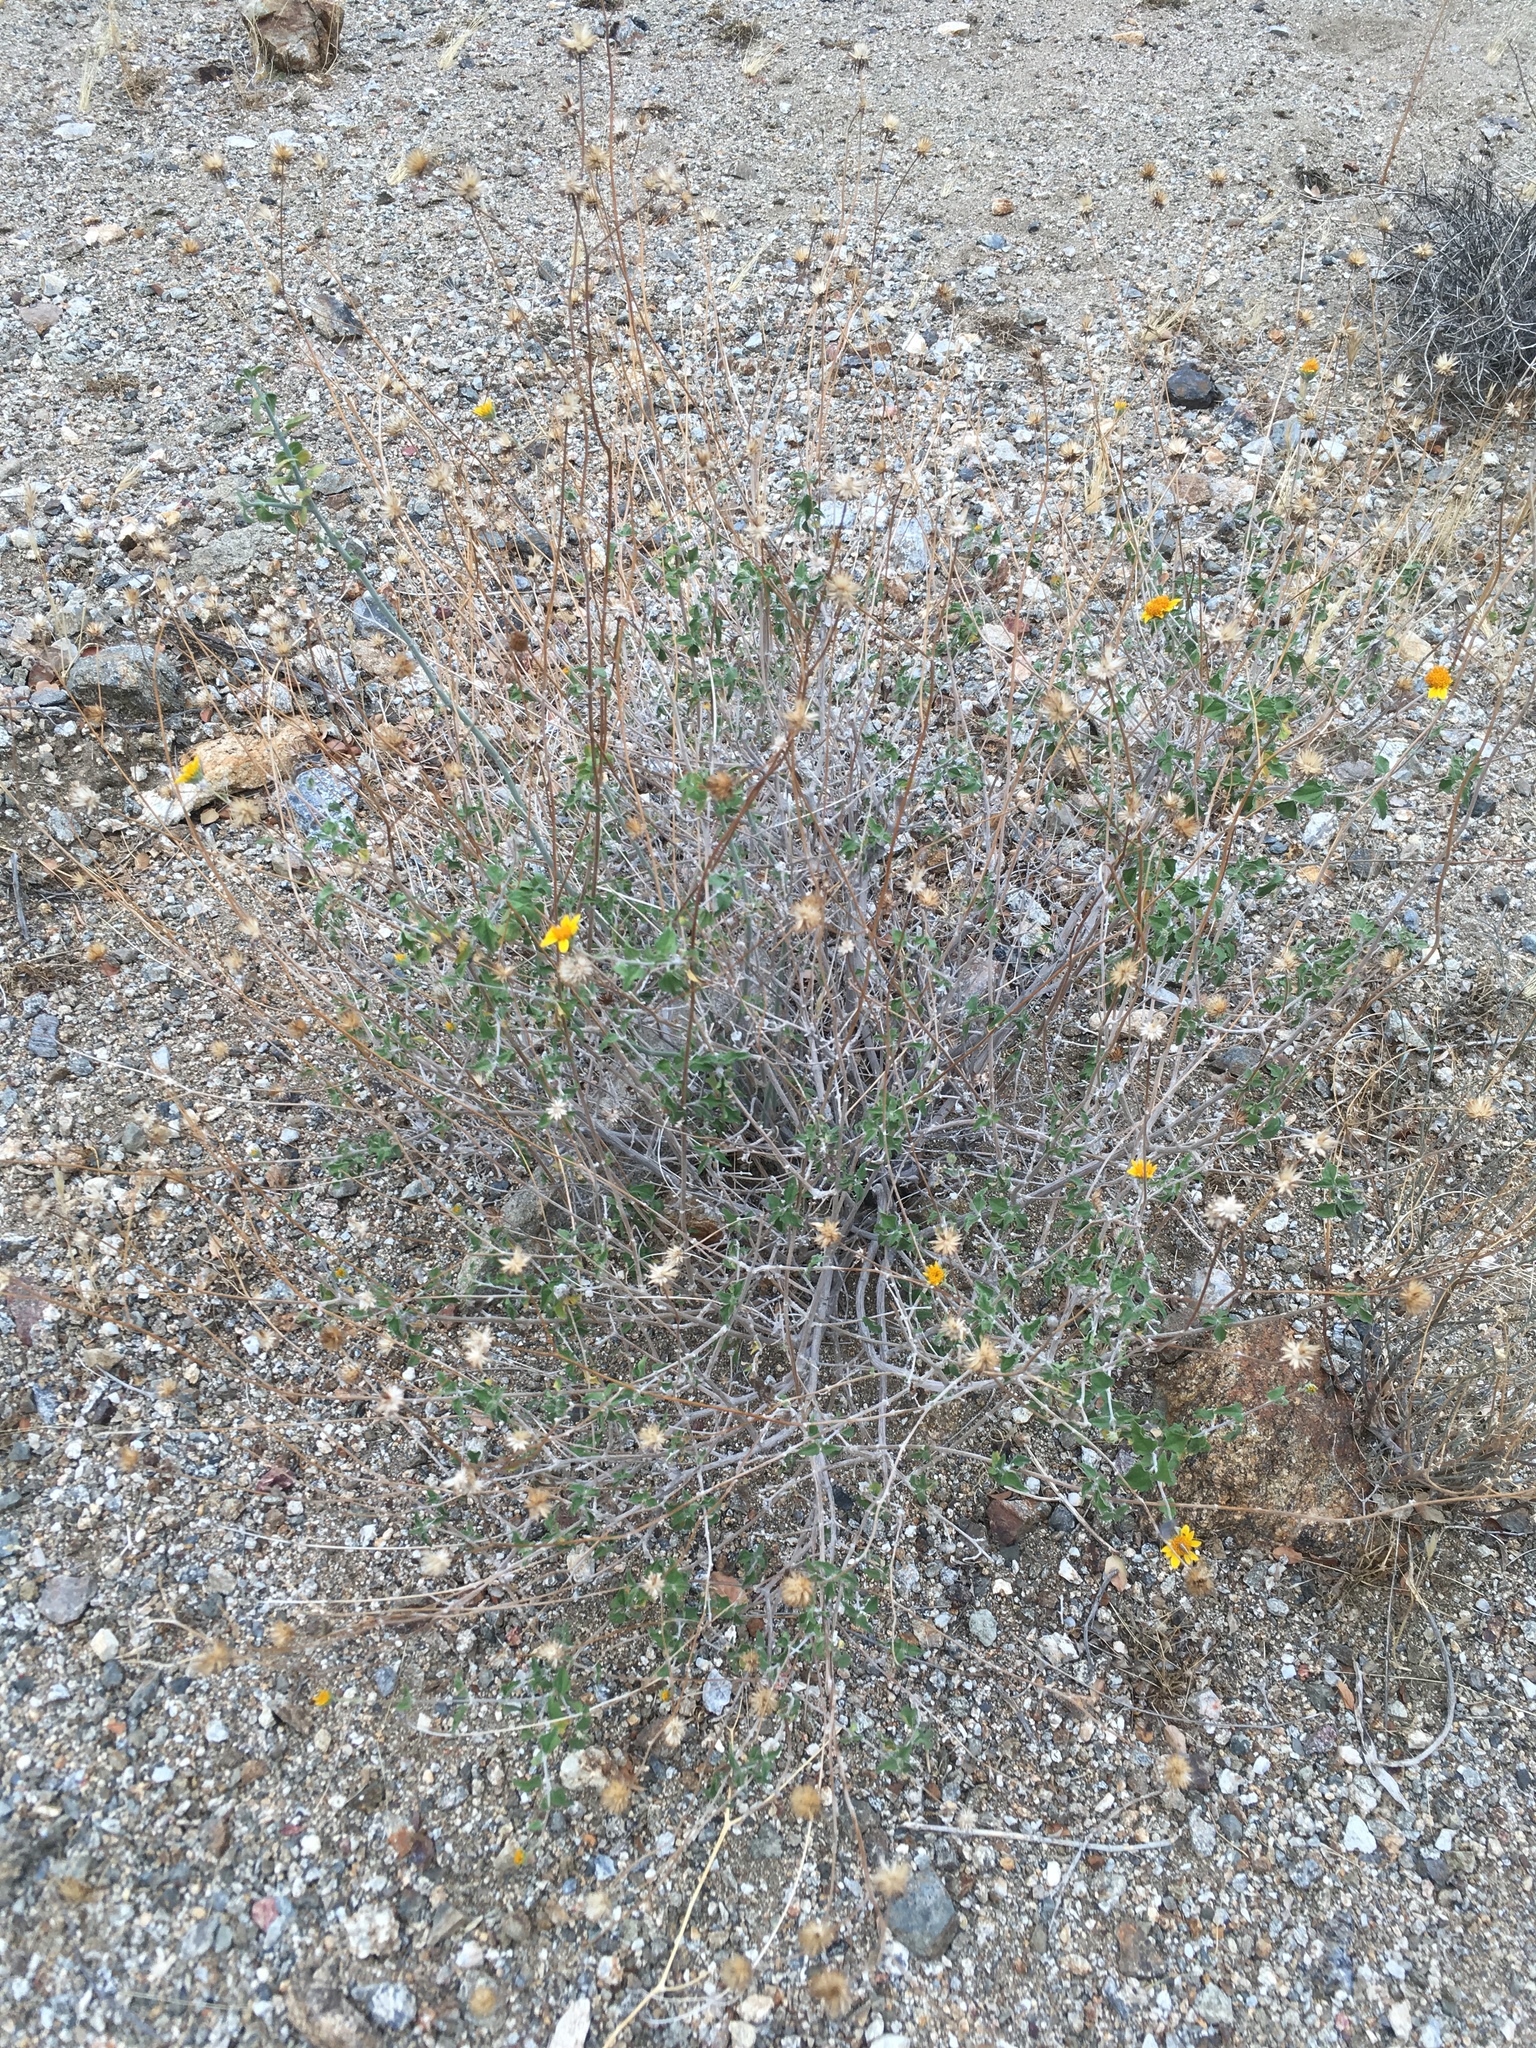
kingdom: Plantae
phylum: Tracheophyta
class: Magnoliopsida
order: Asterales
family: Asteraceae
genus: Bahiopsis
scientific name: Bahiopsis parishii
